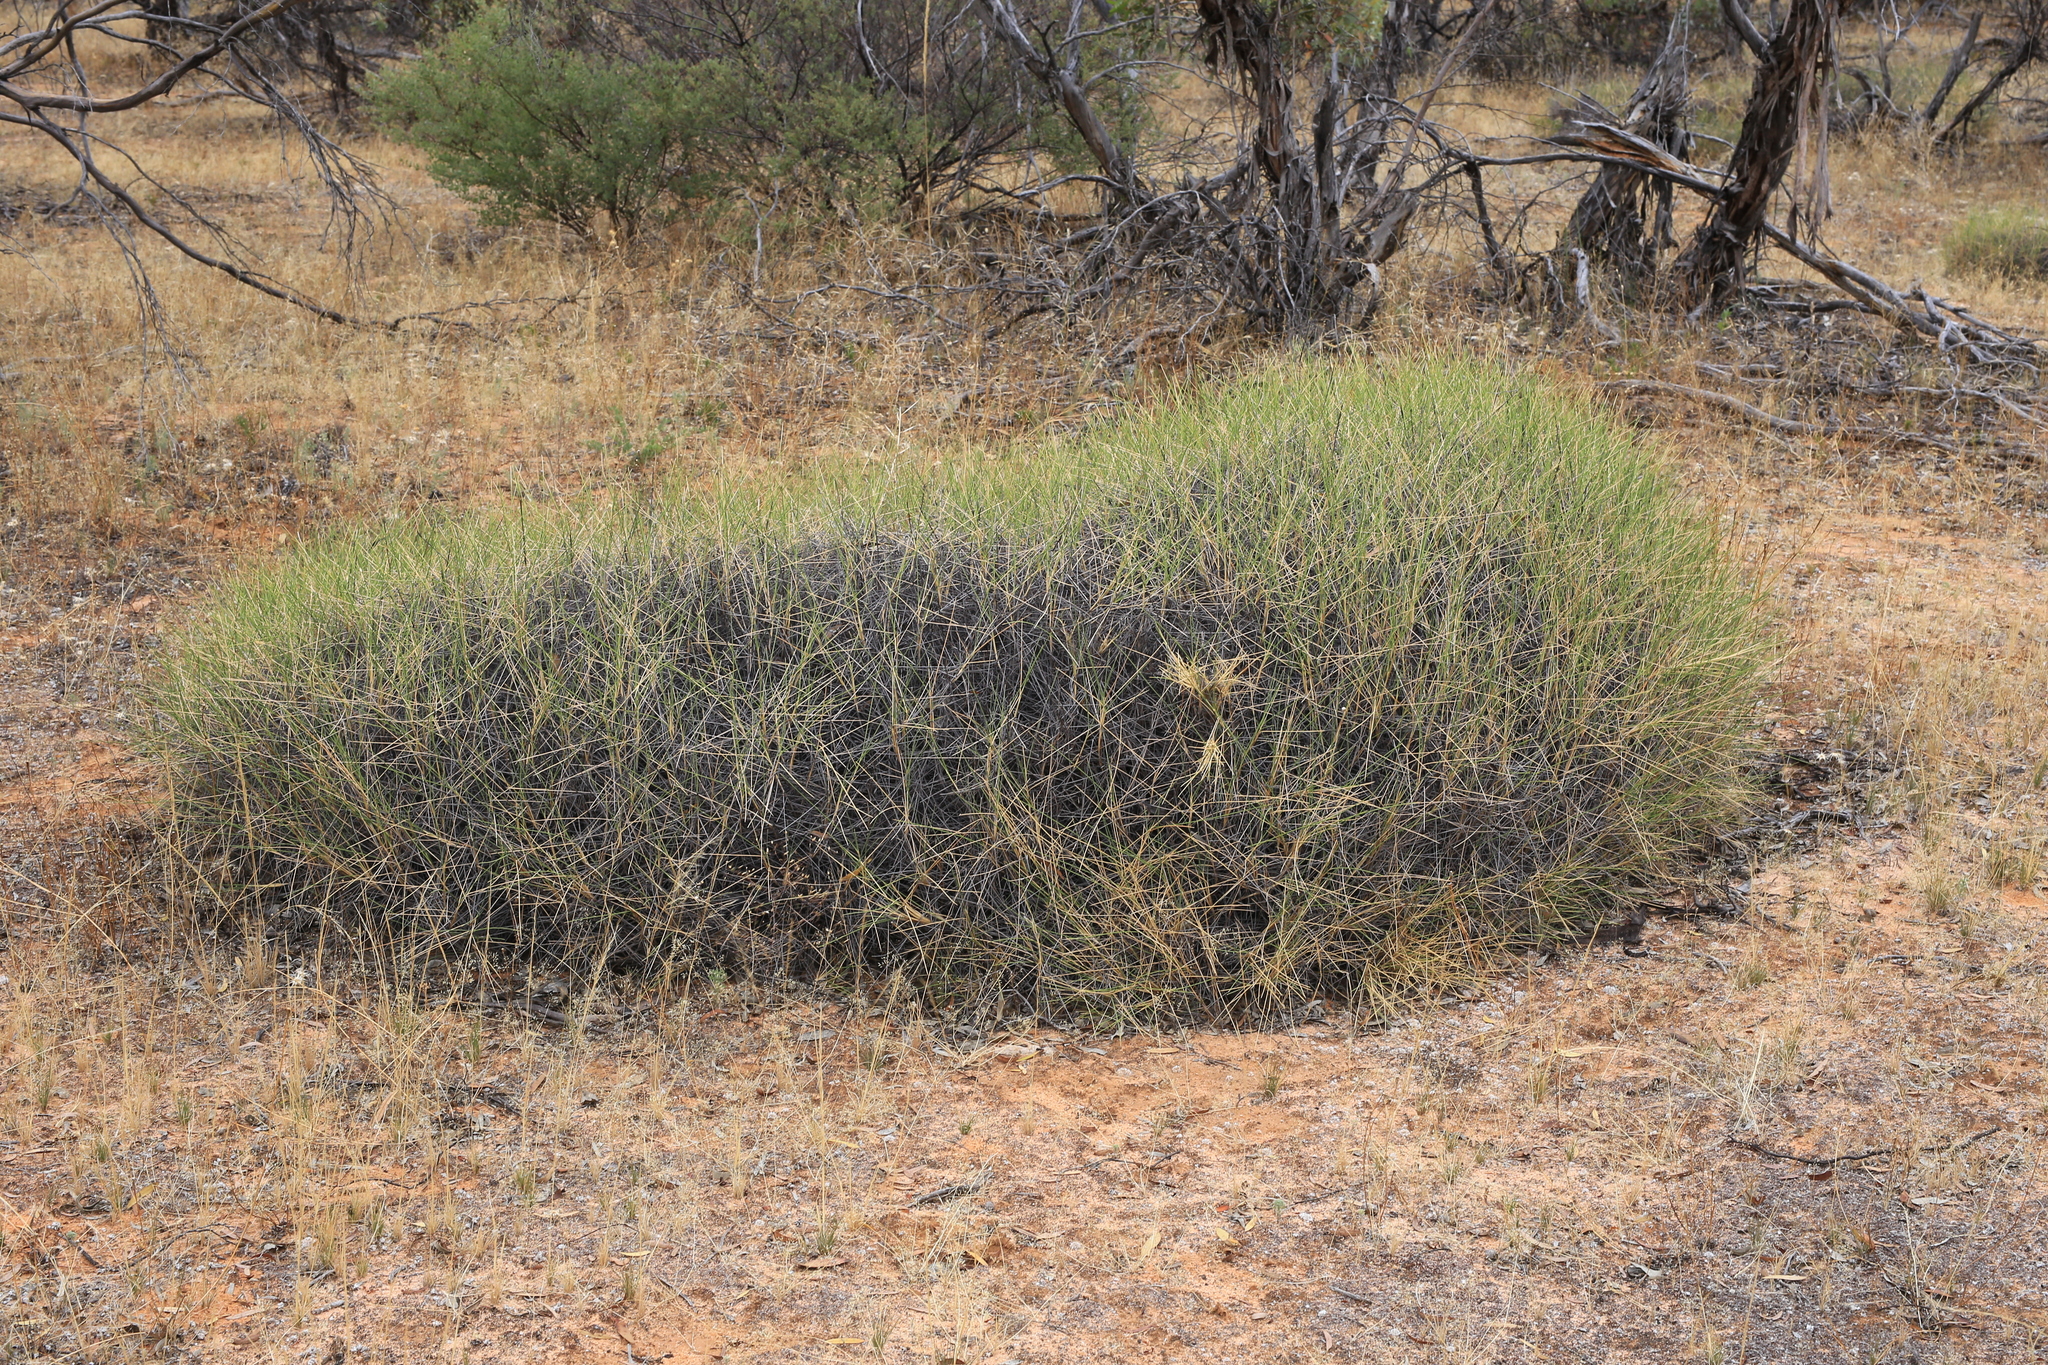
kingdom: Plantae
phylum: Tracheophyta
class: Liliopsida
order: Poales
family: Poaceae
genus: Triodia
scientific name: Triodia scariosa
